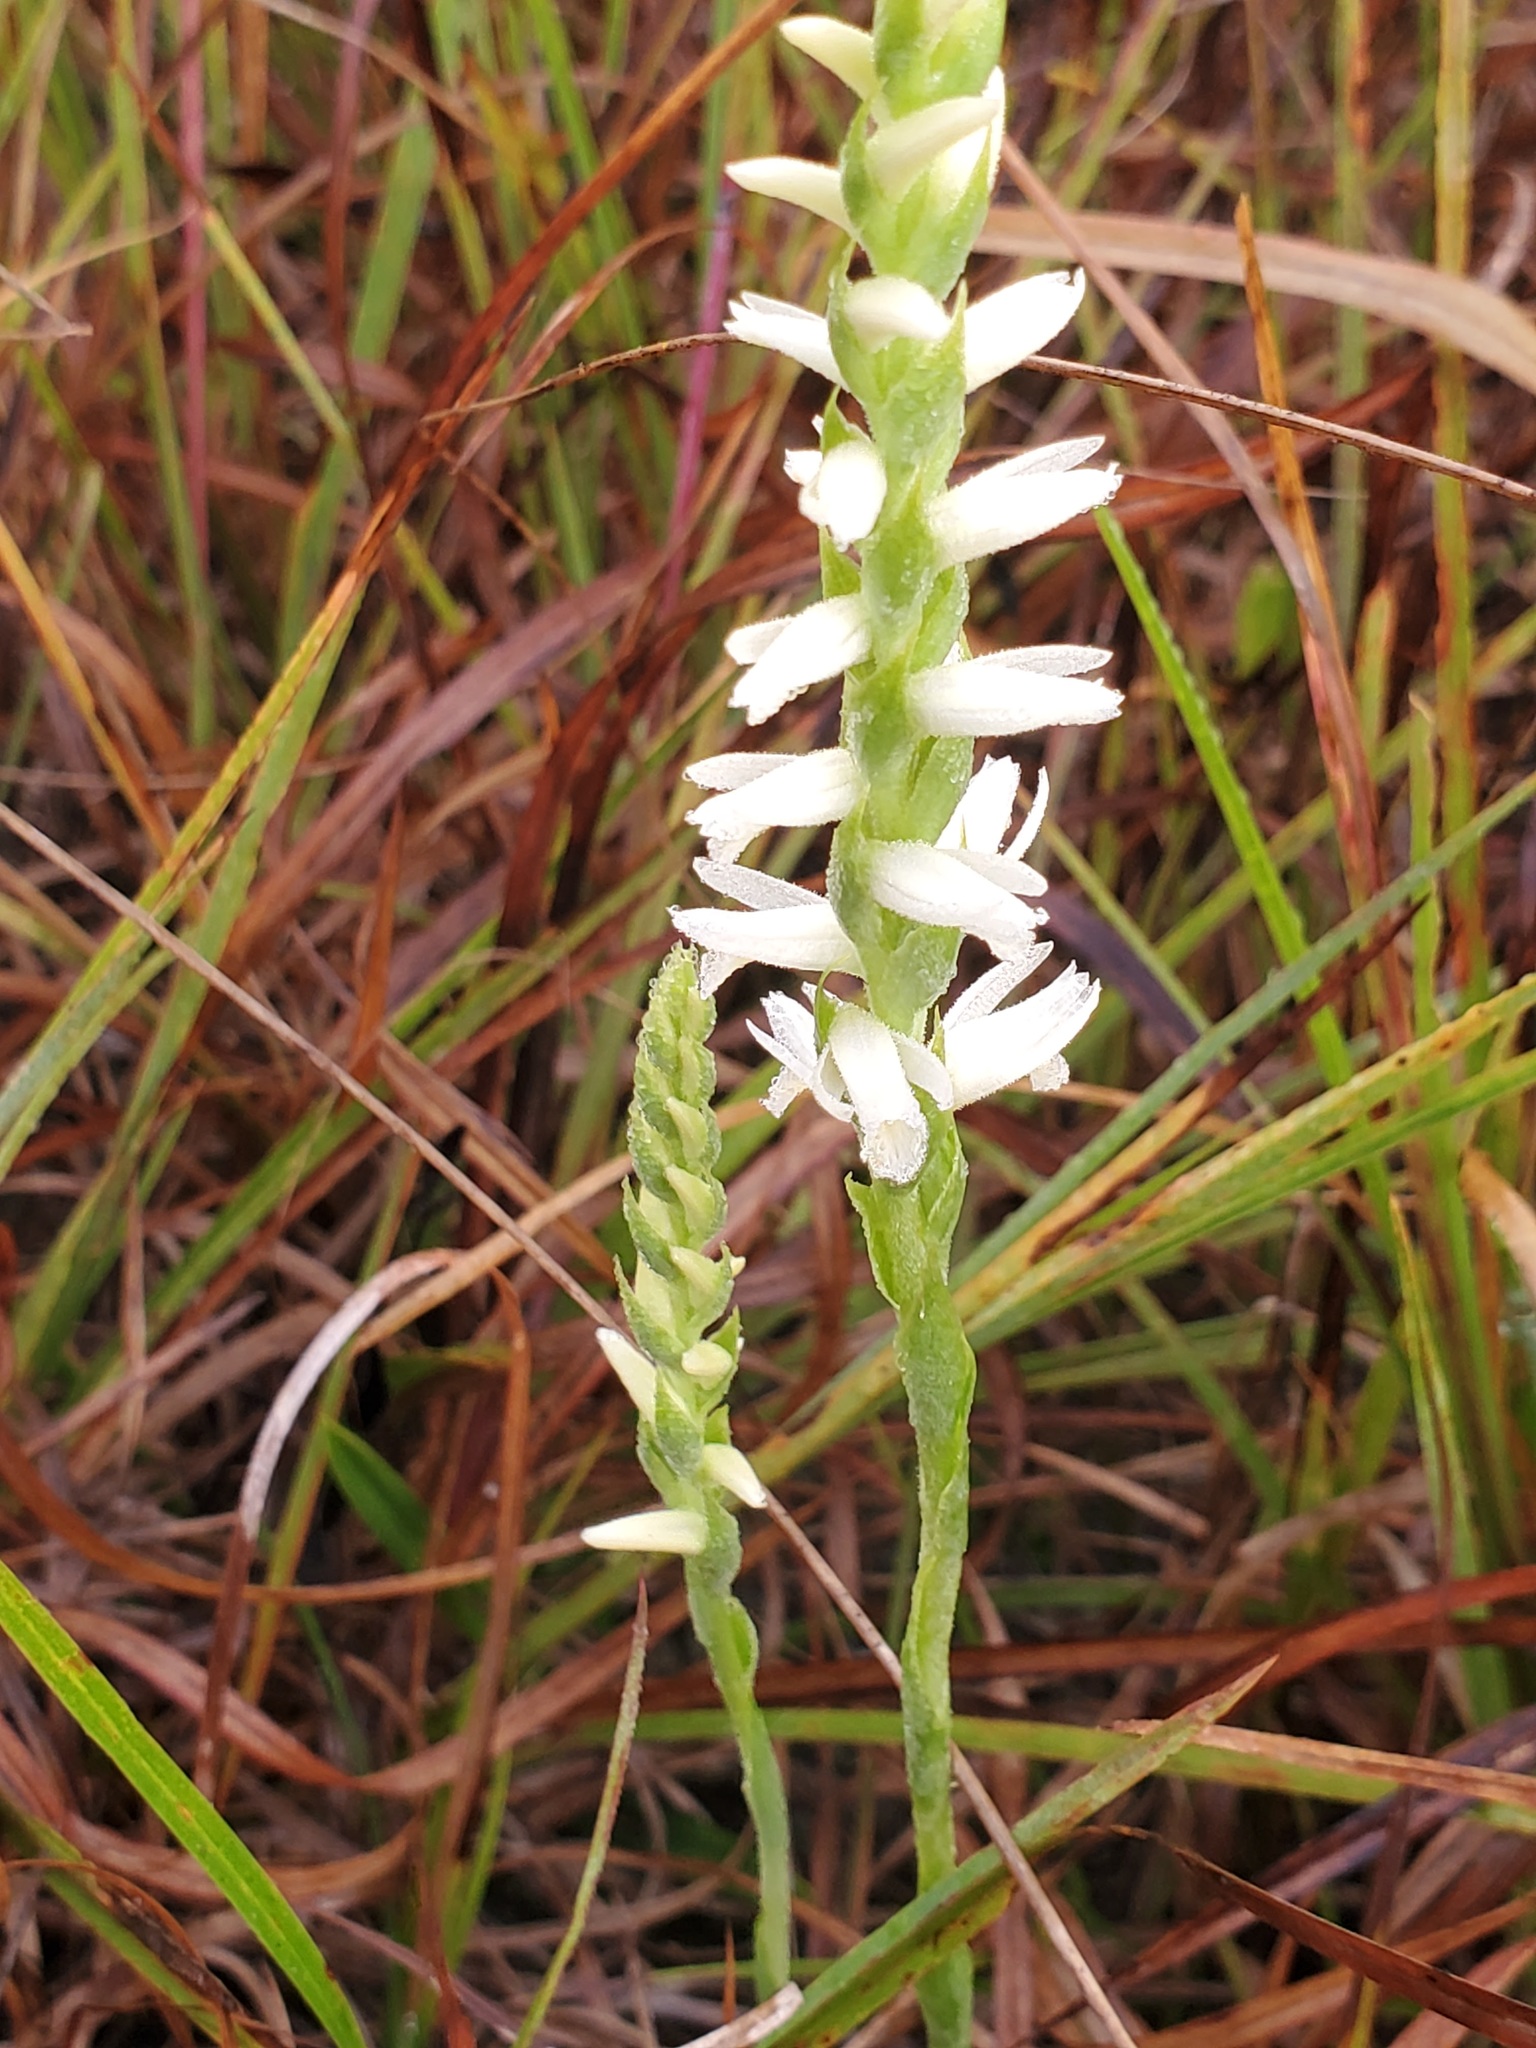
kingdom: Plantae
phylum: Tracheophyta
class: Liliopsida
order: Asparagales
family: Orchidaceae
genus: Spiranthes
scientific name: Spiranthes magnicamporum
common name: Great plains ladies'-tresses
